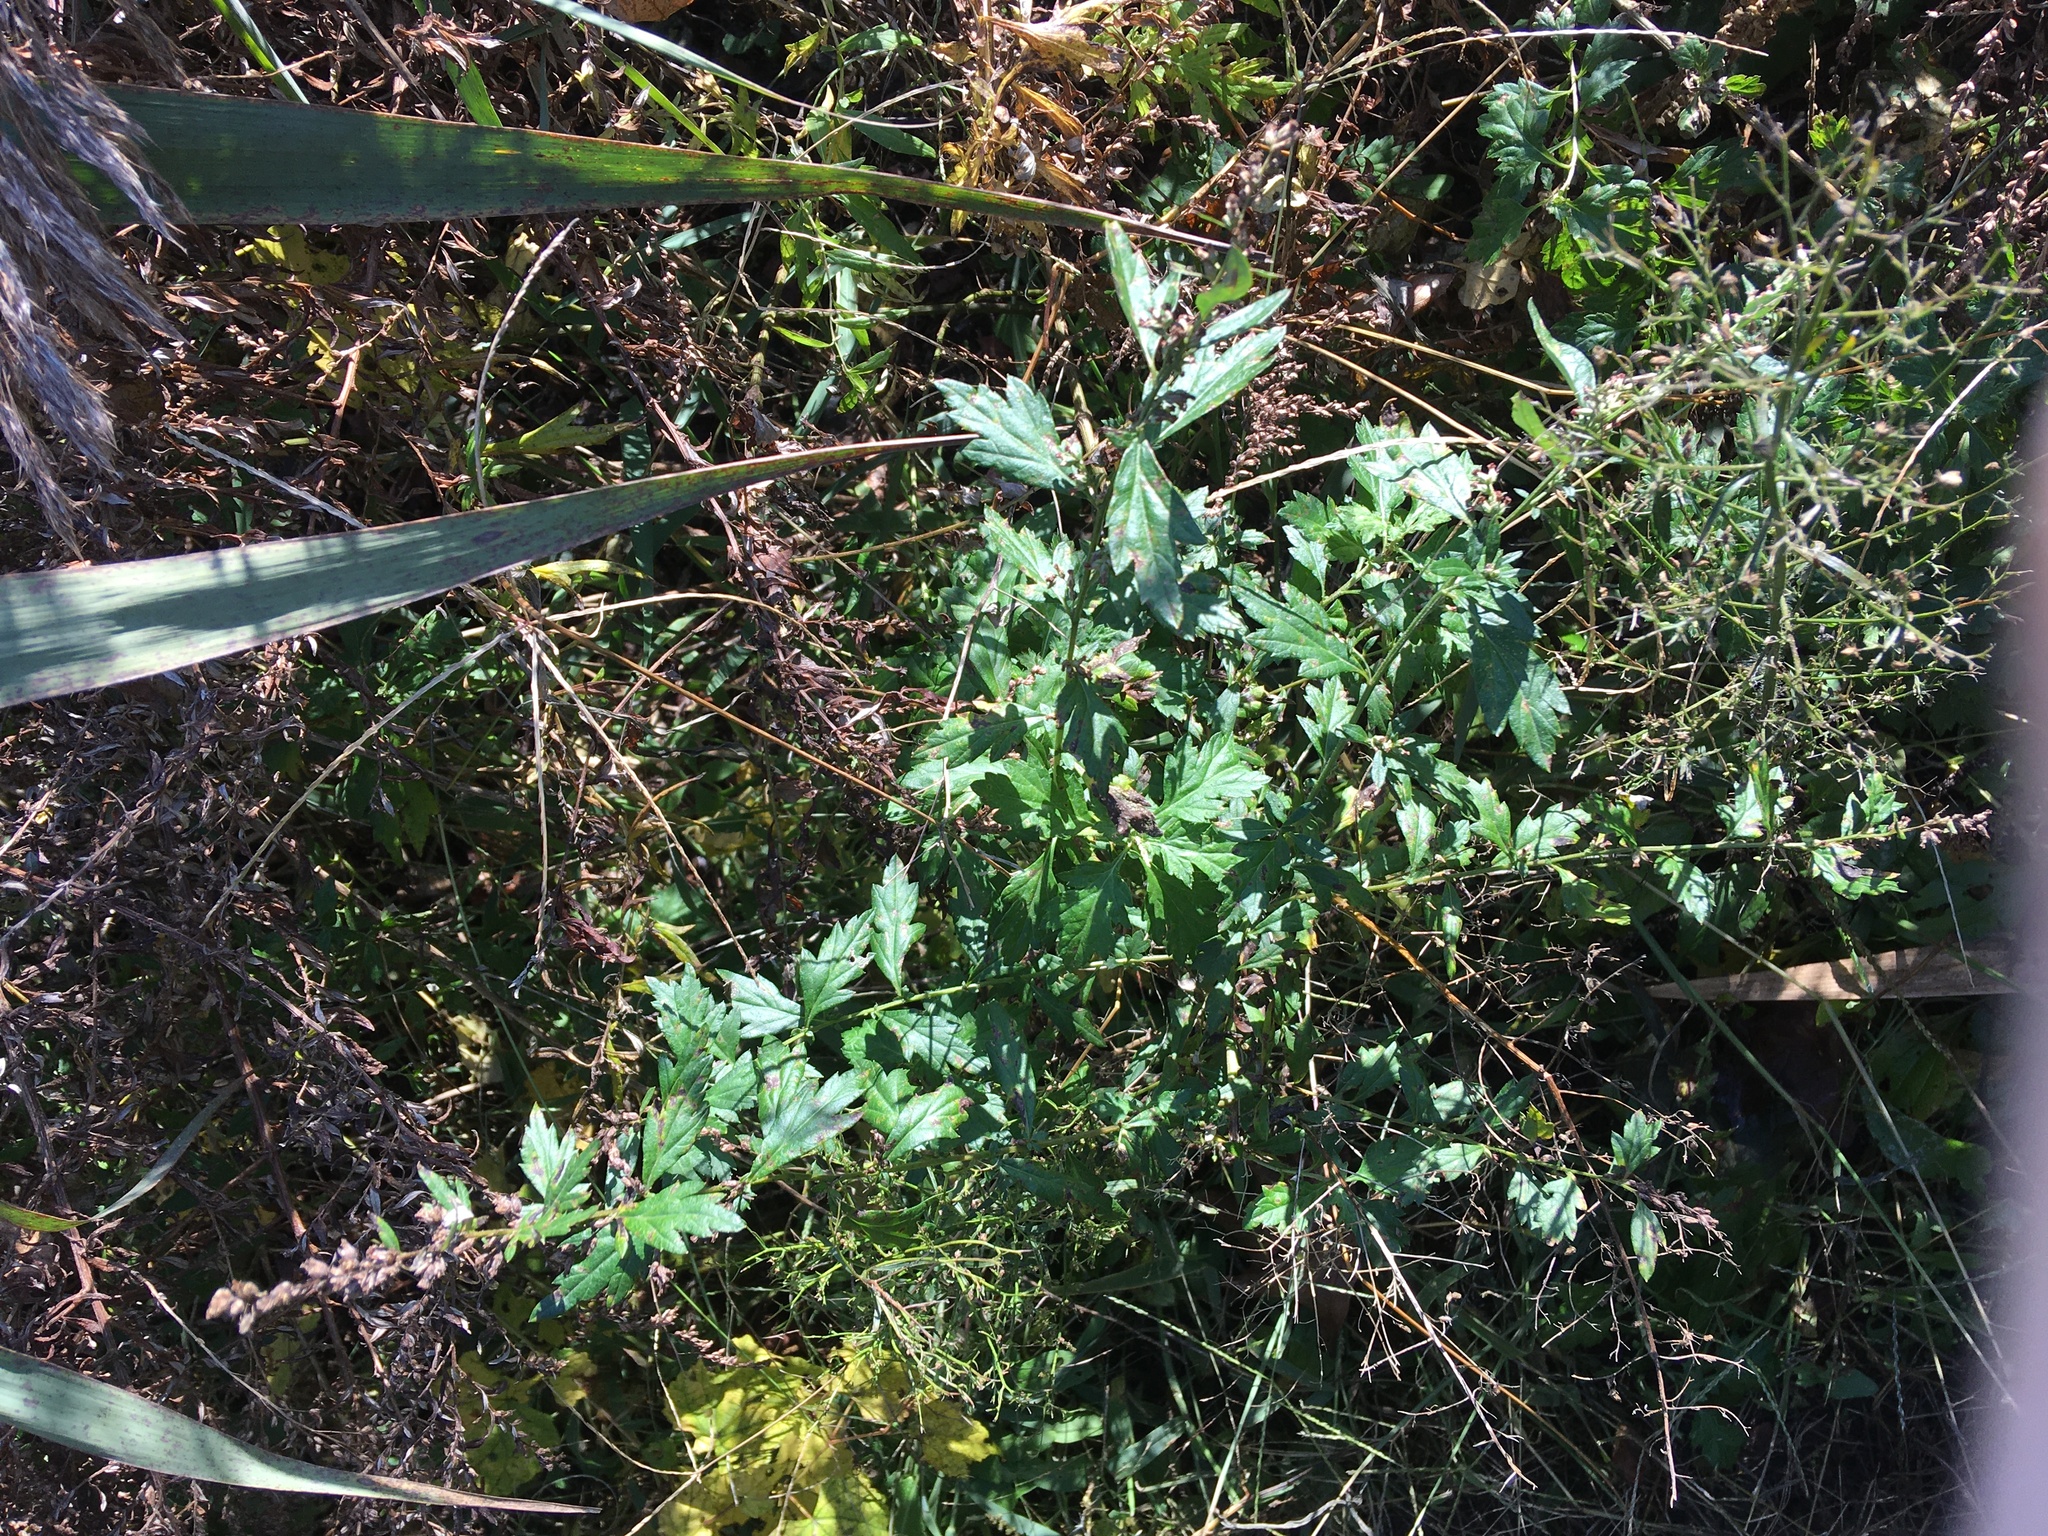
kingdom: Plantae
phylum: Tracheophyta
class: Magnoliopsida
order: Asterales
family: Asteraceae
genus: Artemisia
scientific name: Artemisia vulgaris
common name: Mugwort
